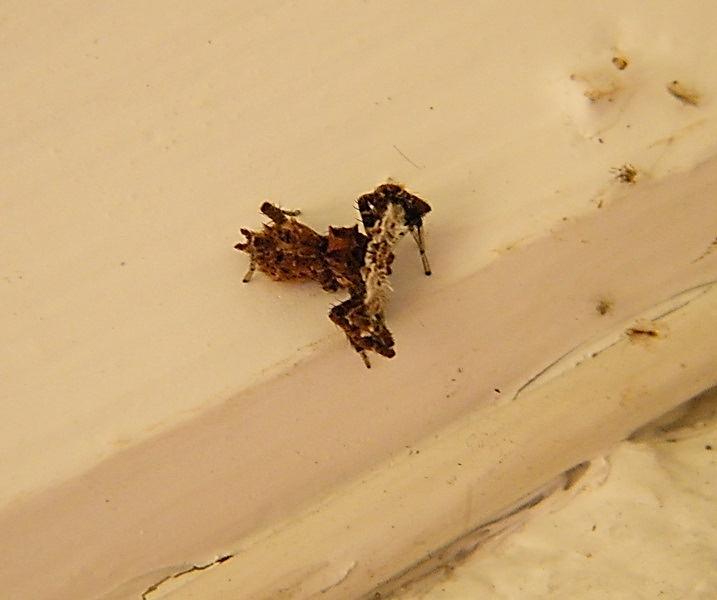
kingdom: Animalia
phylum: Arthropoda
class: Arachnida
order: Araneae
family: Salticidae
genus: Portia
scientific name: Portia schultzi
